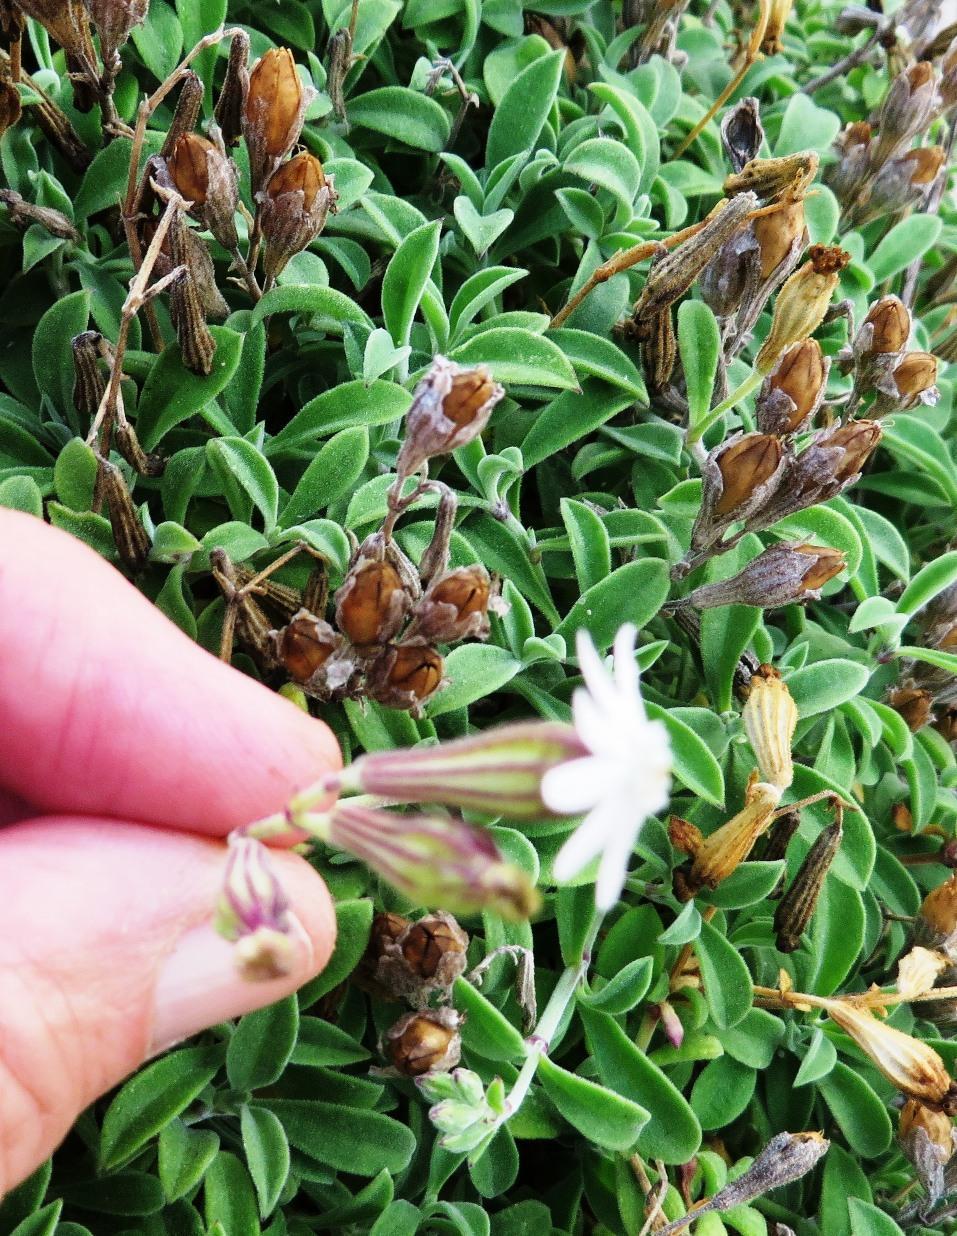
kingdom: Plantae
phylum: Tracheophyta
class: Magnoliopsida
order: Caryophyllales
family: Caryophyllaceae
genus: Silene
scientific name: Silene mundiana
